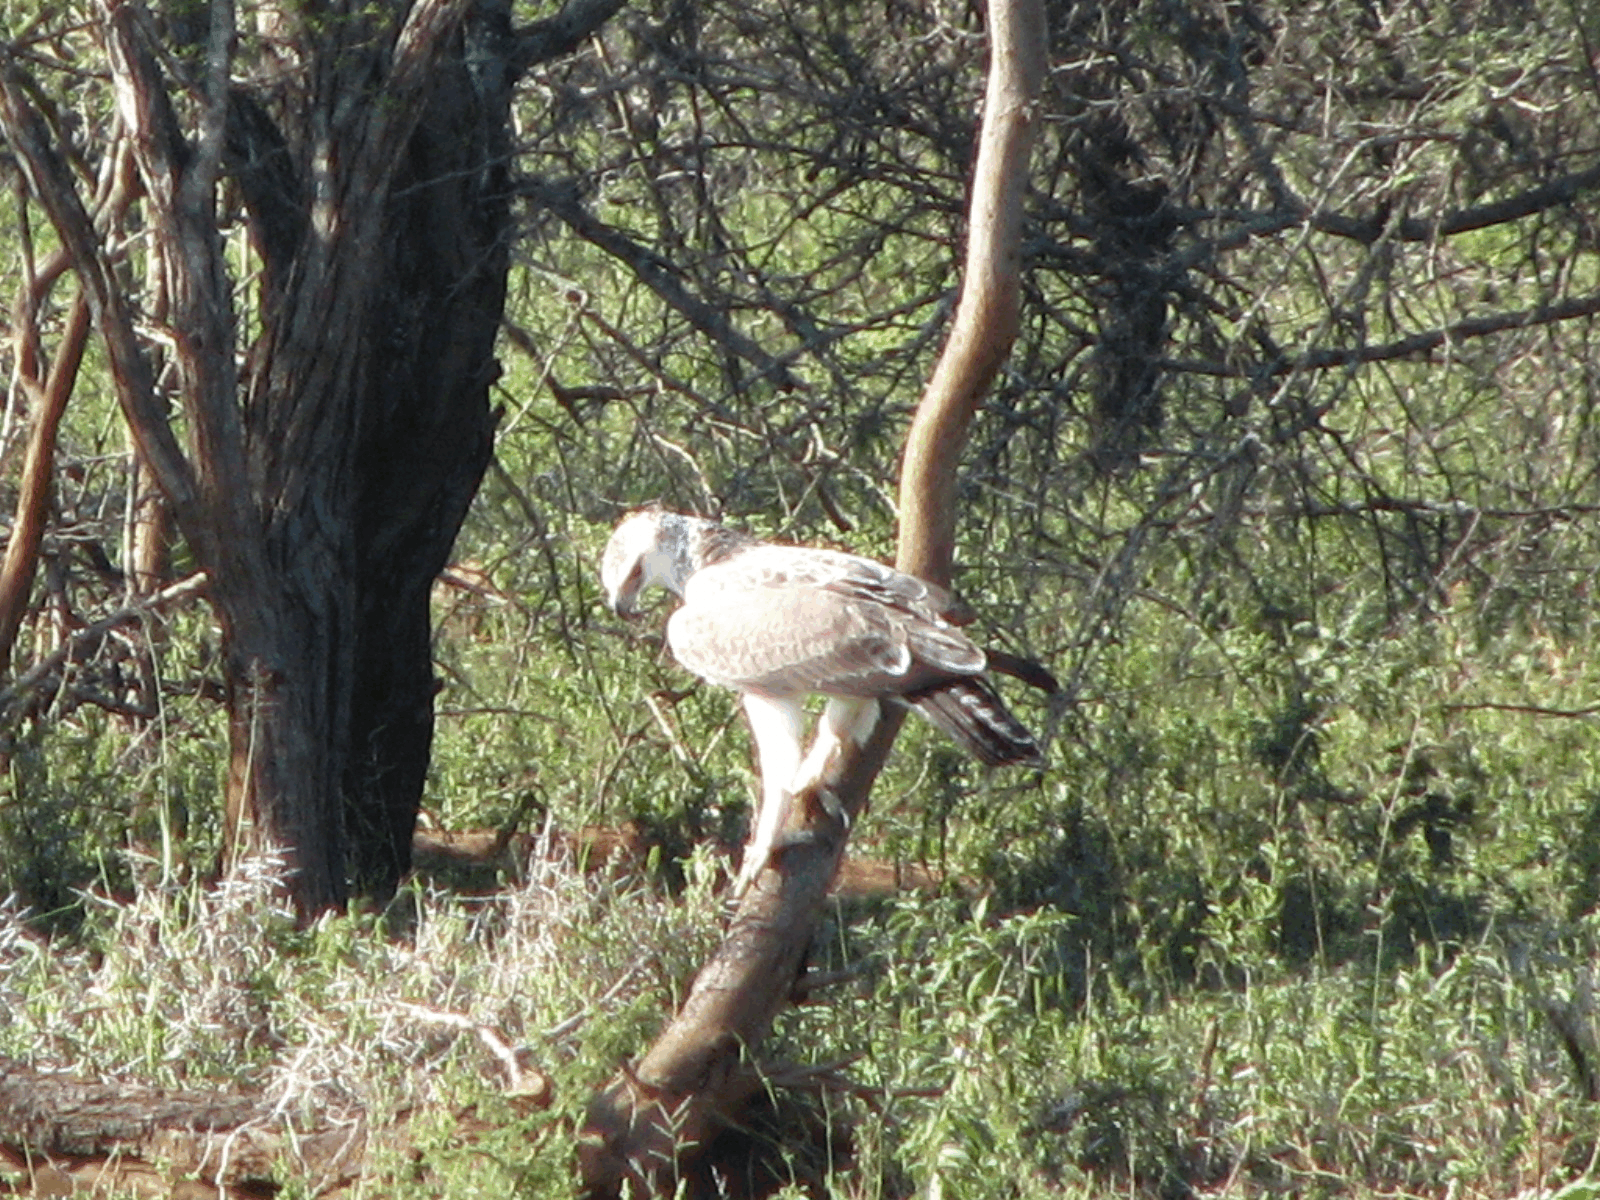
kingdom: Animalia
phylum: Chordata
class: Aves
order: Accipitriformes
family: Accipitridae
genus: Polemaetus
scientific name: Polemaetus bellicosus
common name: Martial eagle
